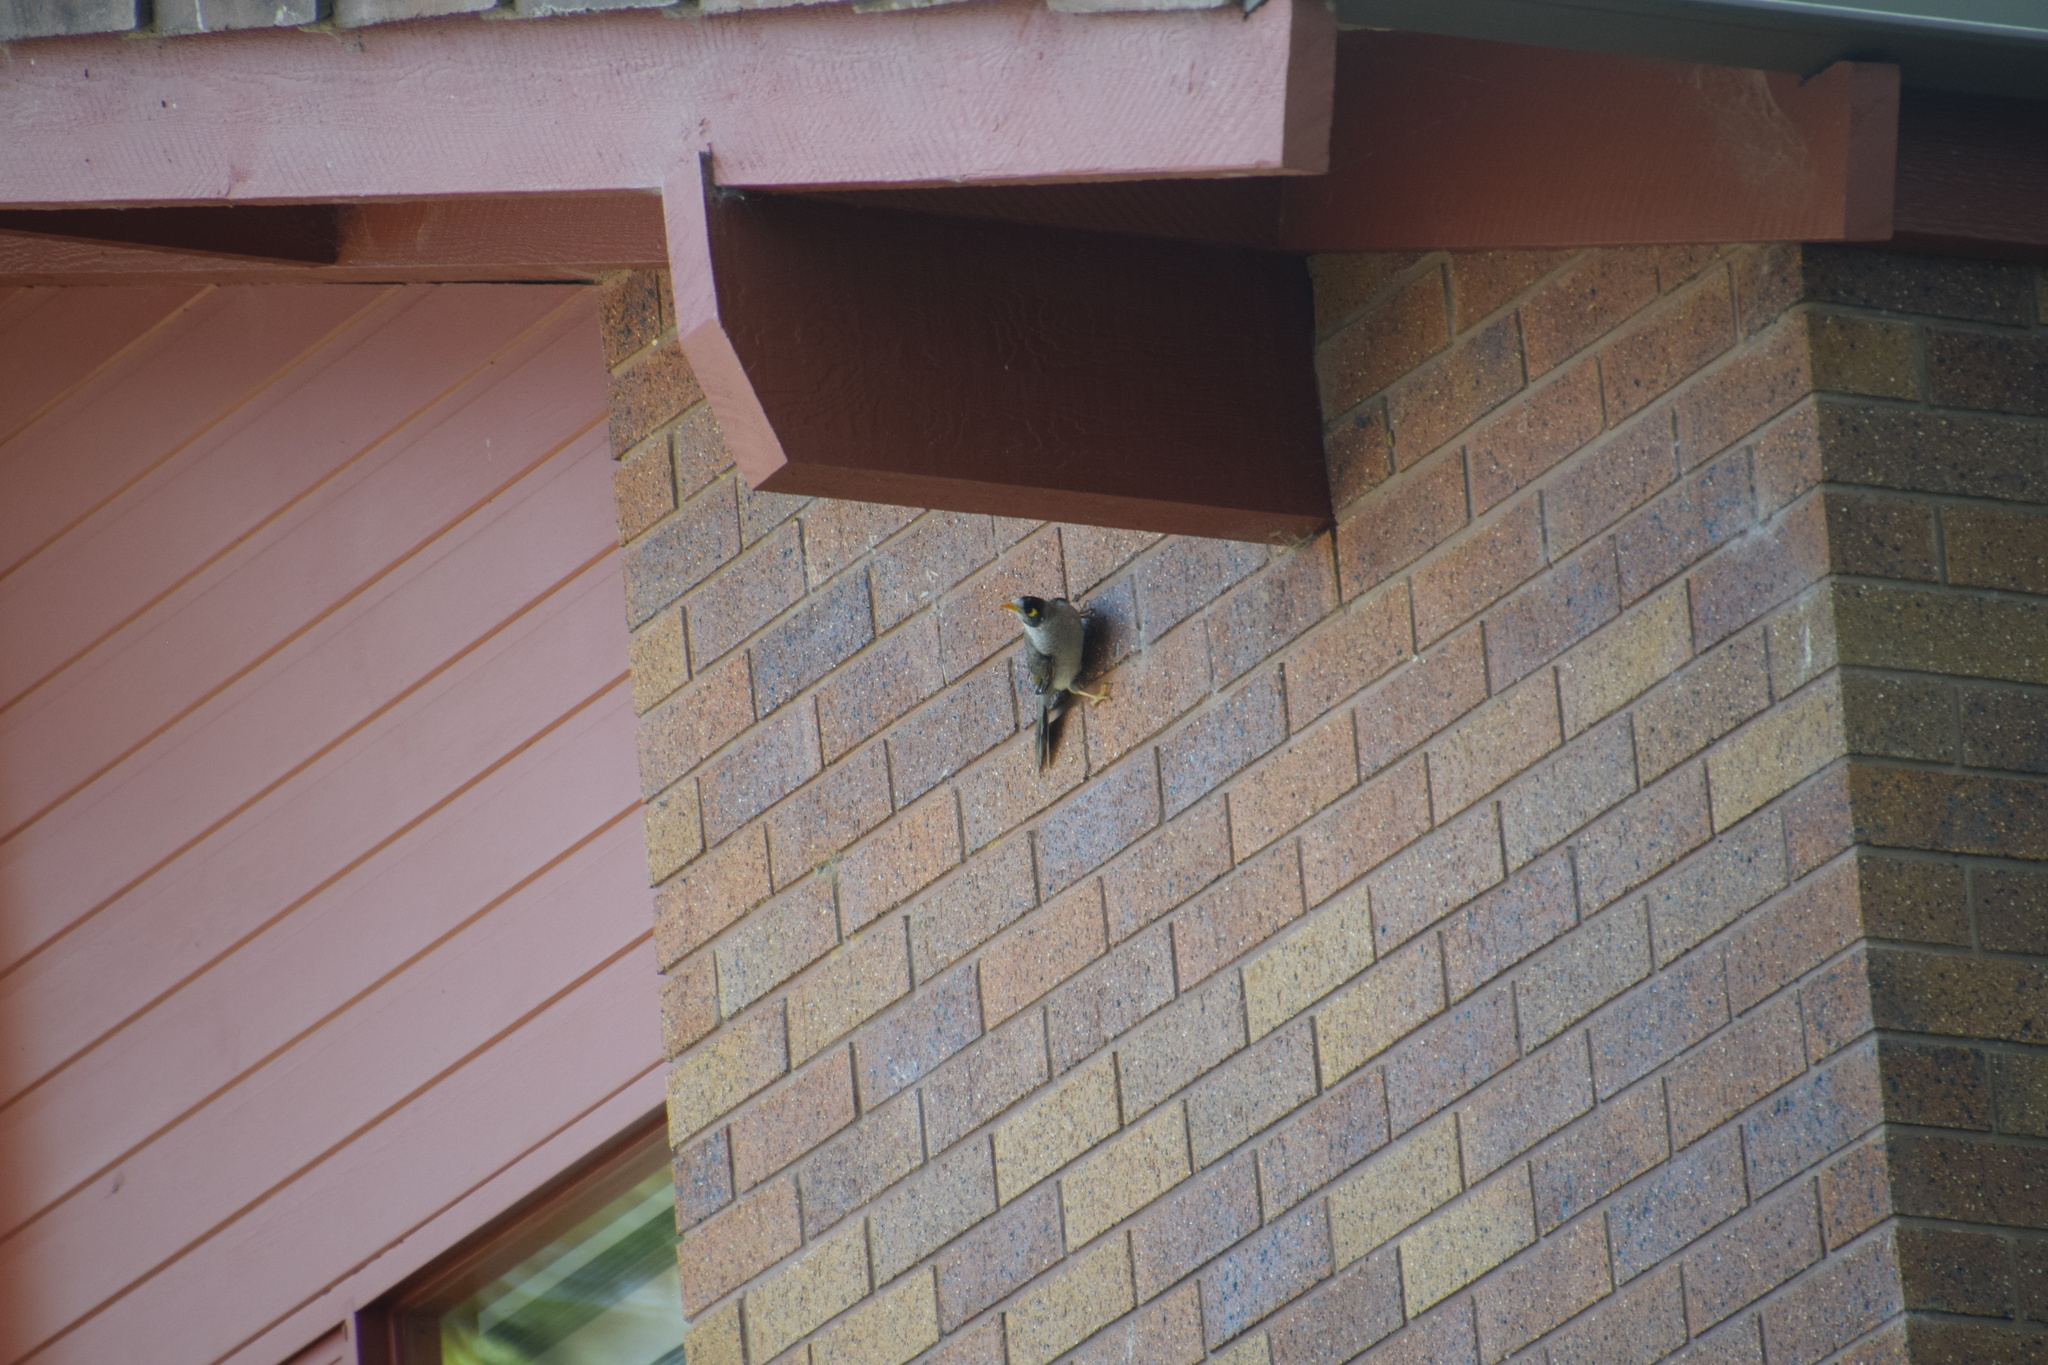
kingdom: Animalia
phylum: Chordata
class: Aves
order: Passeriformes
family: Meliphagidae
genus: Manorina
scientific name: Manorina melanocephala
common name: Noisy miner
